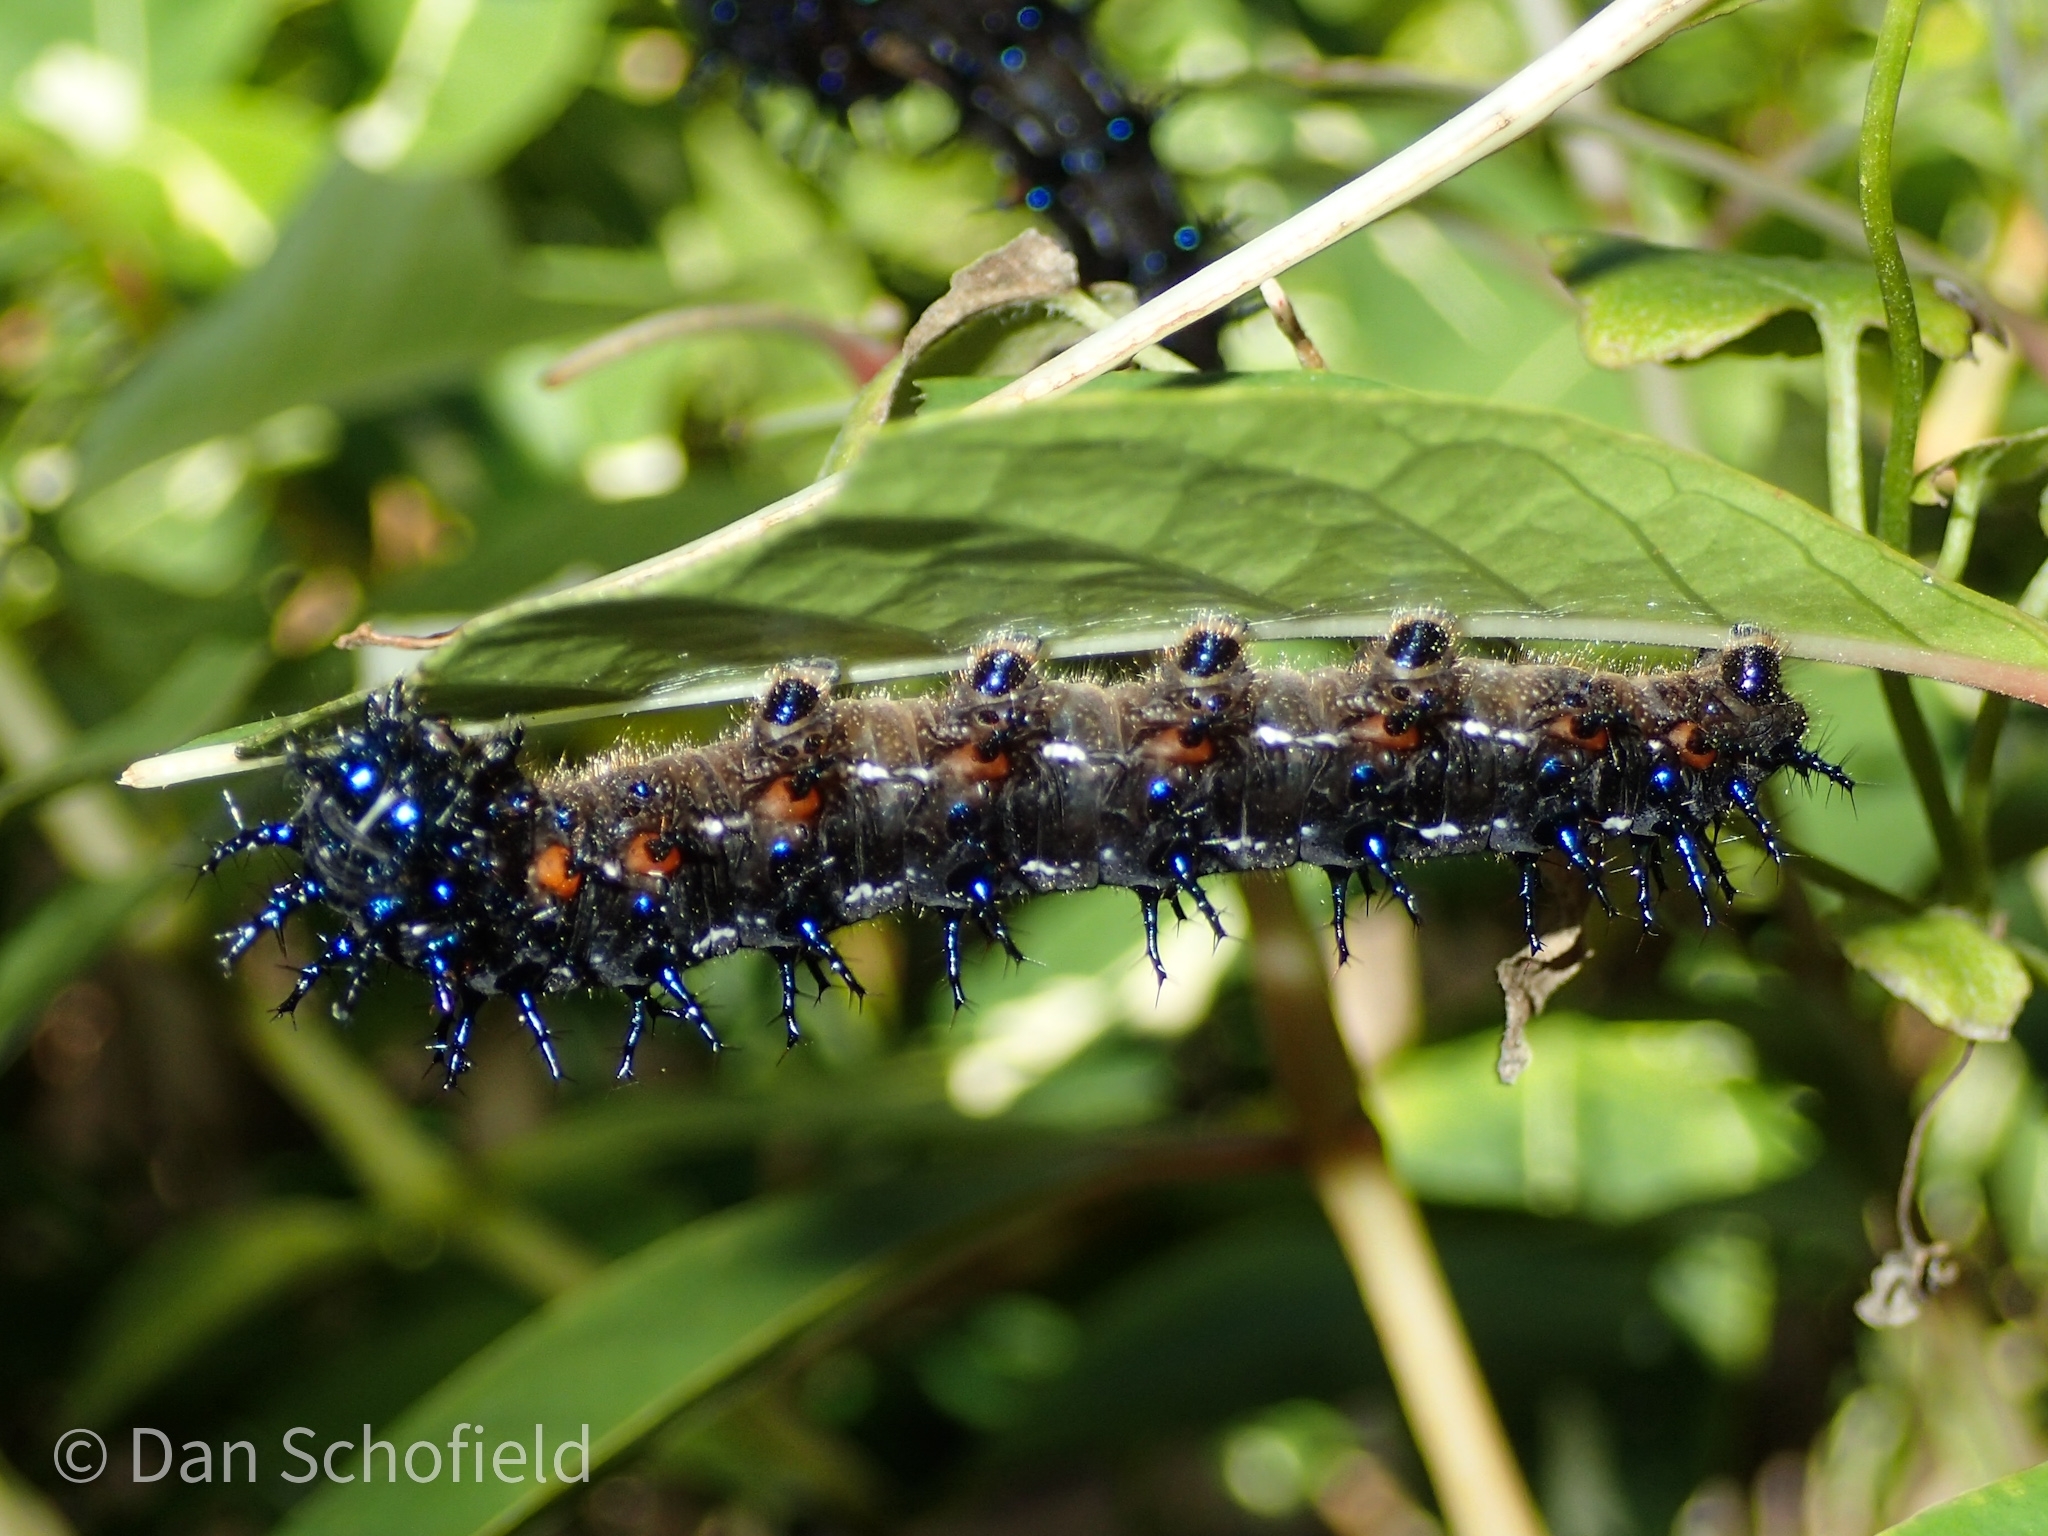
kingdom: Animalia
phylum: Arthropoda
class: Insecta
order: Lepidoptera
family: Nymphalidae
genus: Doleschallia
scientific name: Doleschallia bisaltide
